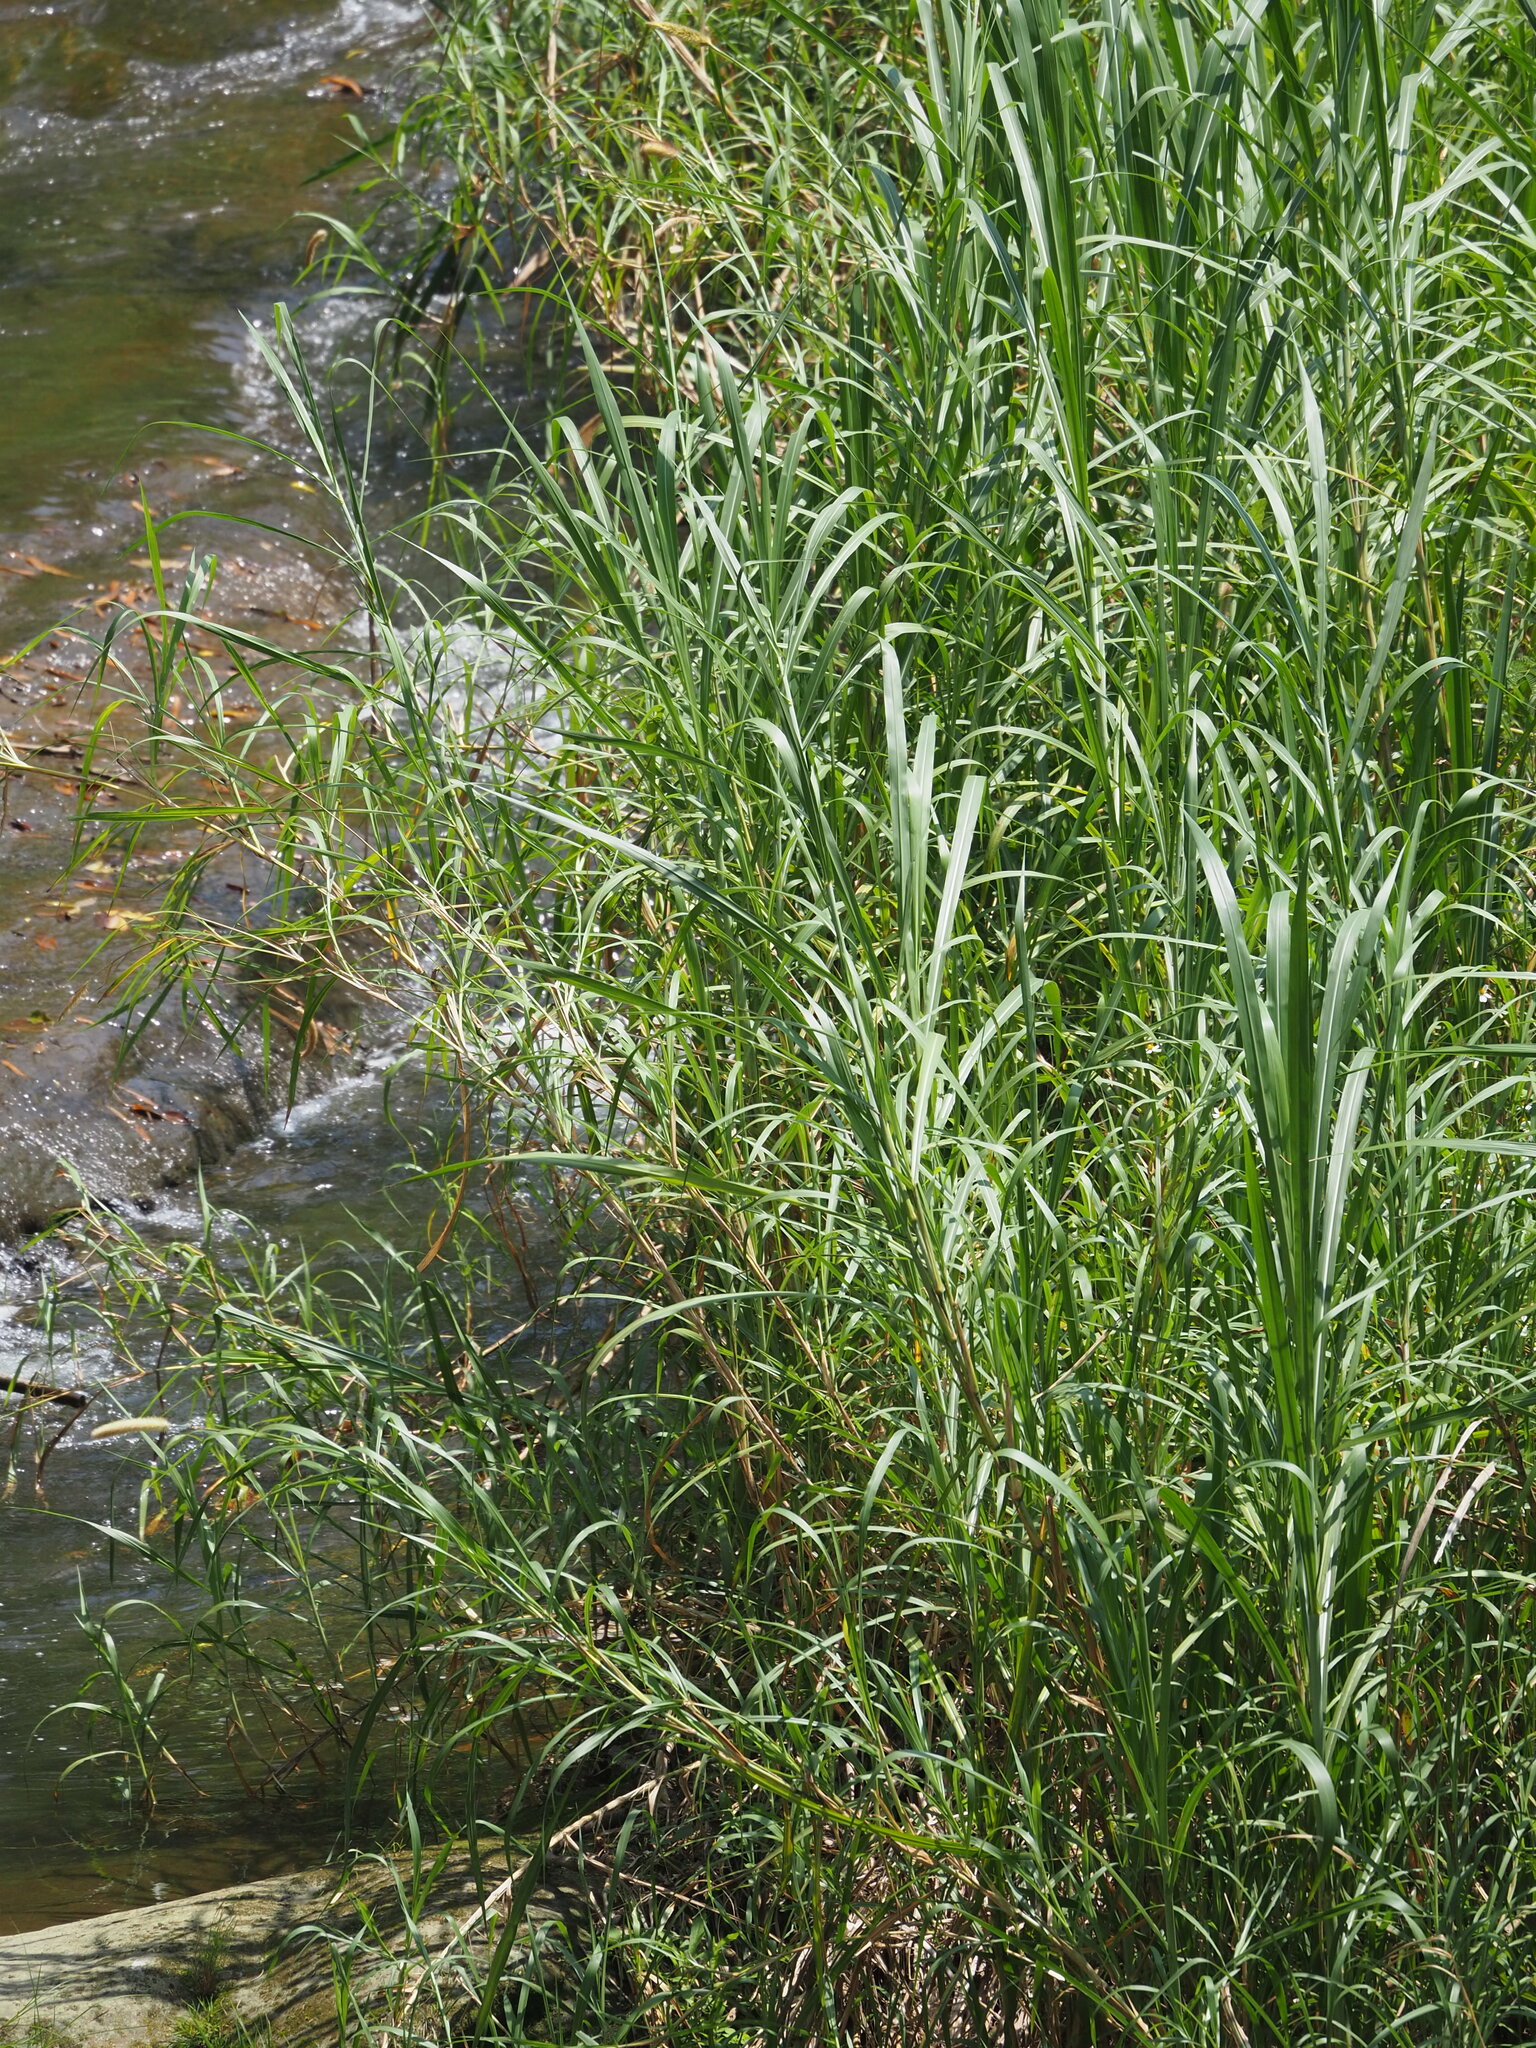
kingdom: Plantae
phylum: Tracheophyta
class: Liliopsida
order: Poales
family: Poaceae
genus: Cenchrus
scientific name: Cenchrus purpureus
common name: Elephant grass
